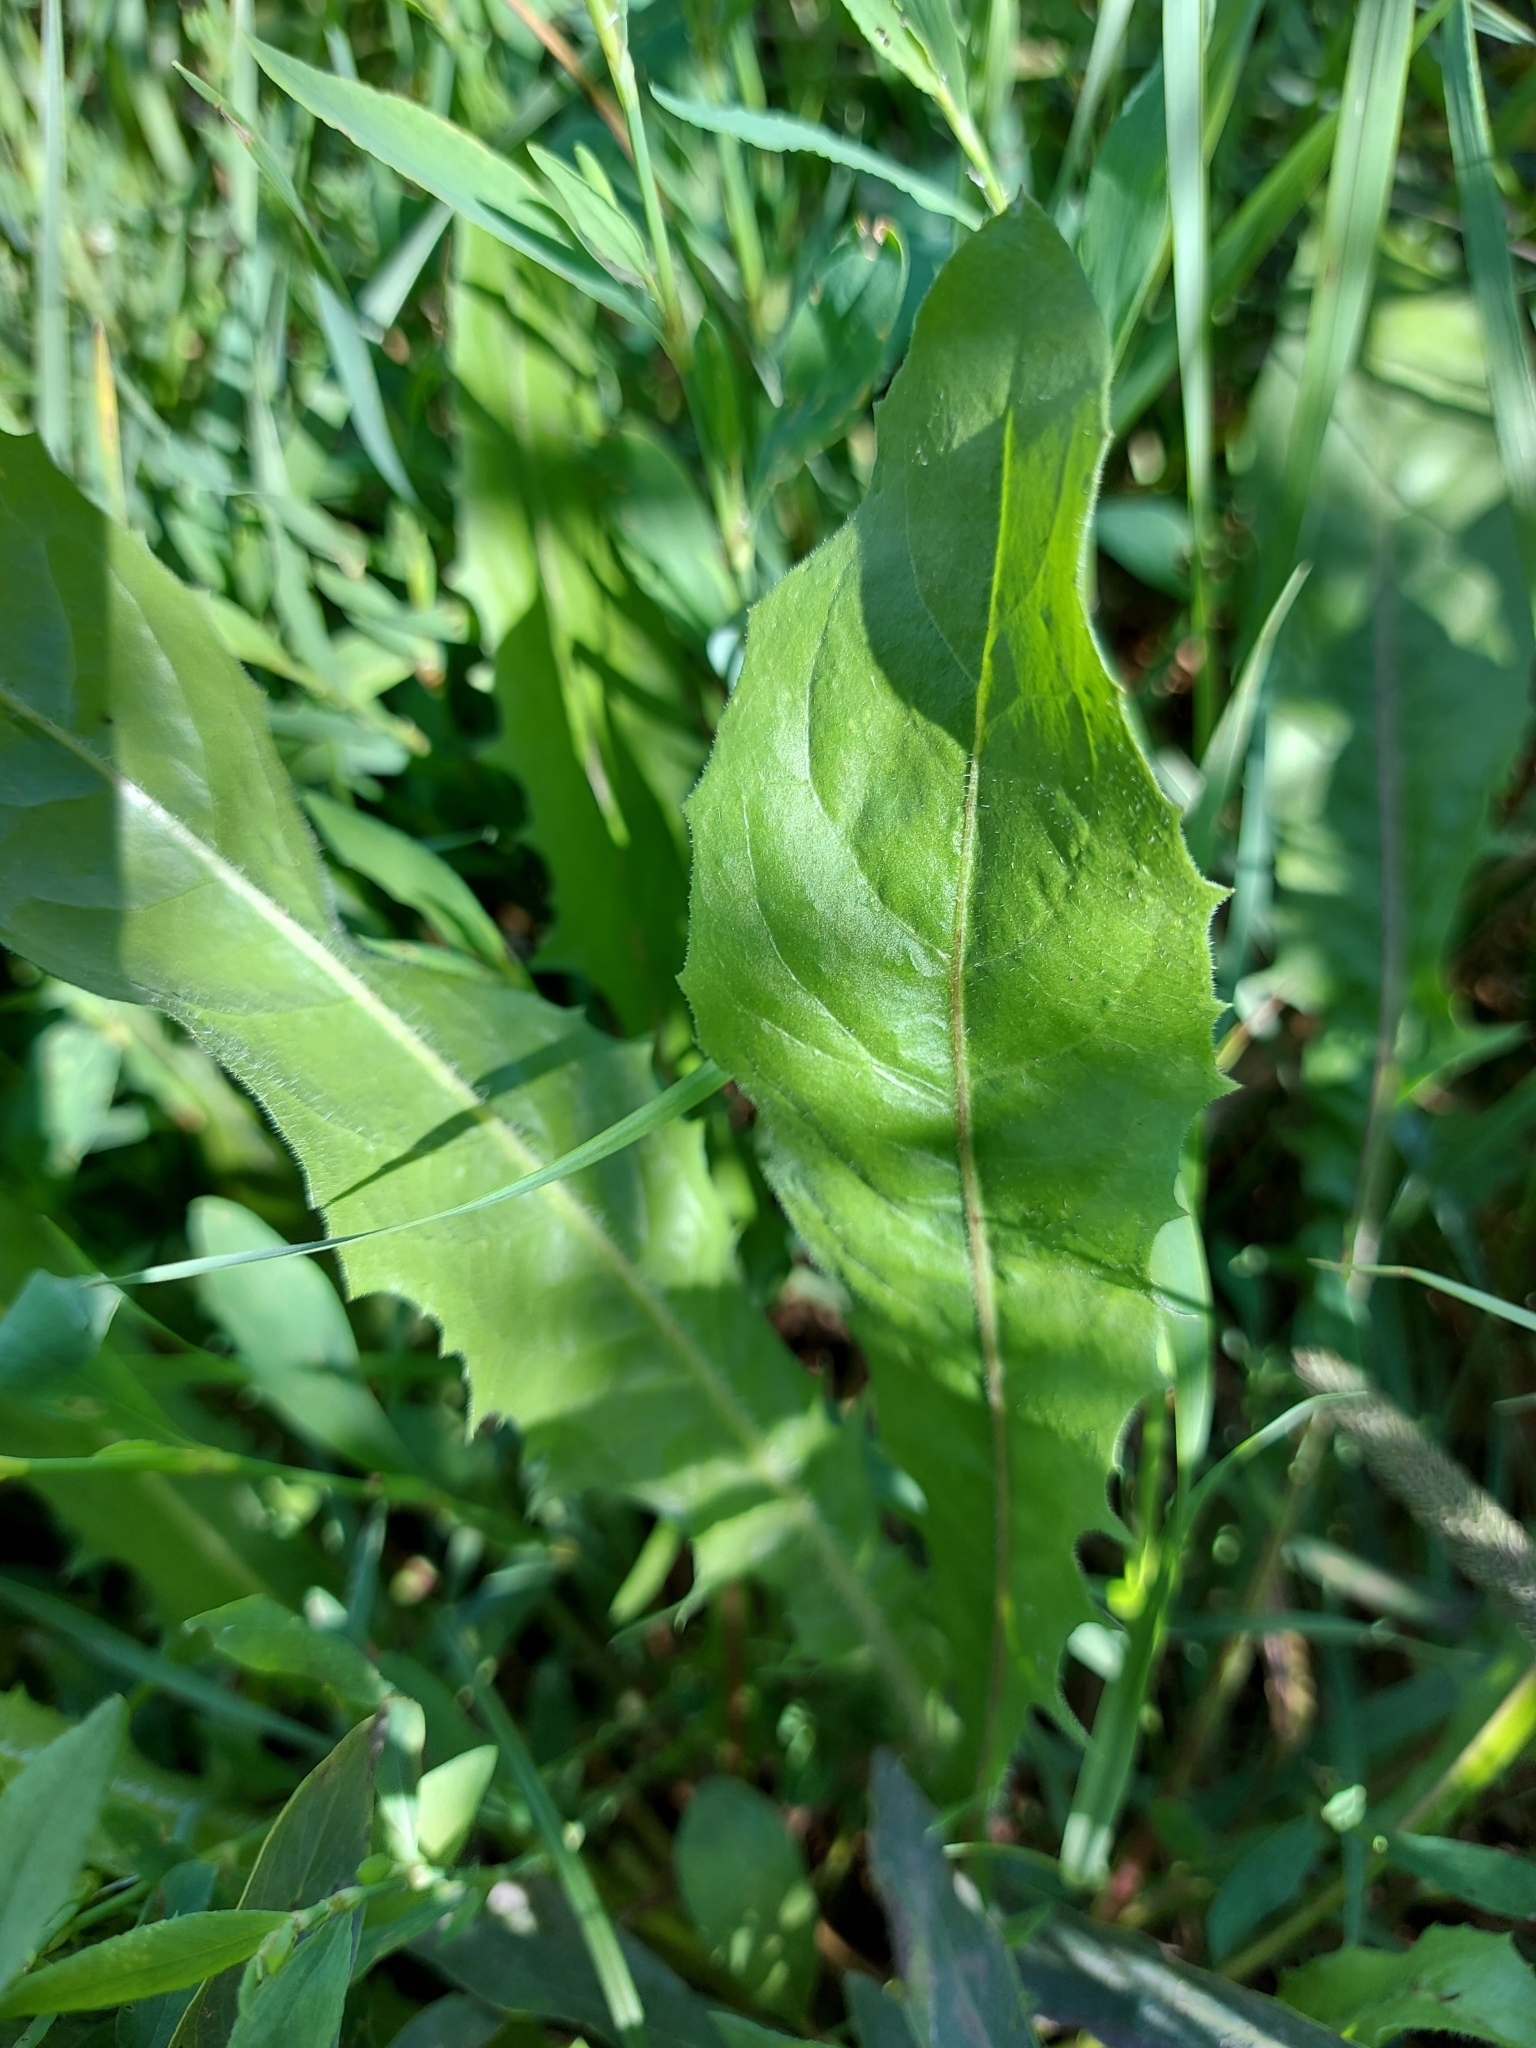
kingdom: Plantae
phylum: Tracheophyta
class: Magnoliopsida
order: Asterales
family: Asteraceae
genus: Cichorium
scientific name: Cichorium intybus
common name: Chicory
